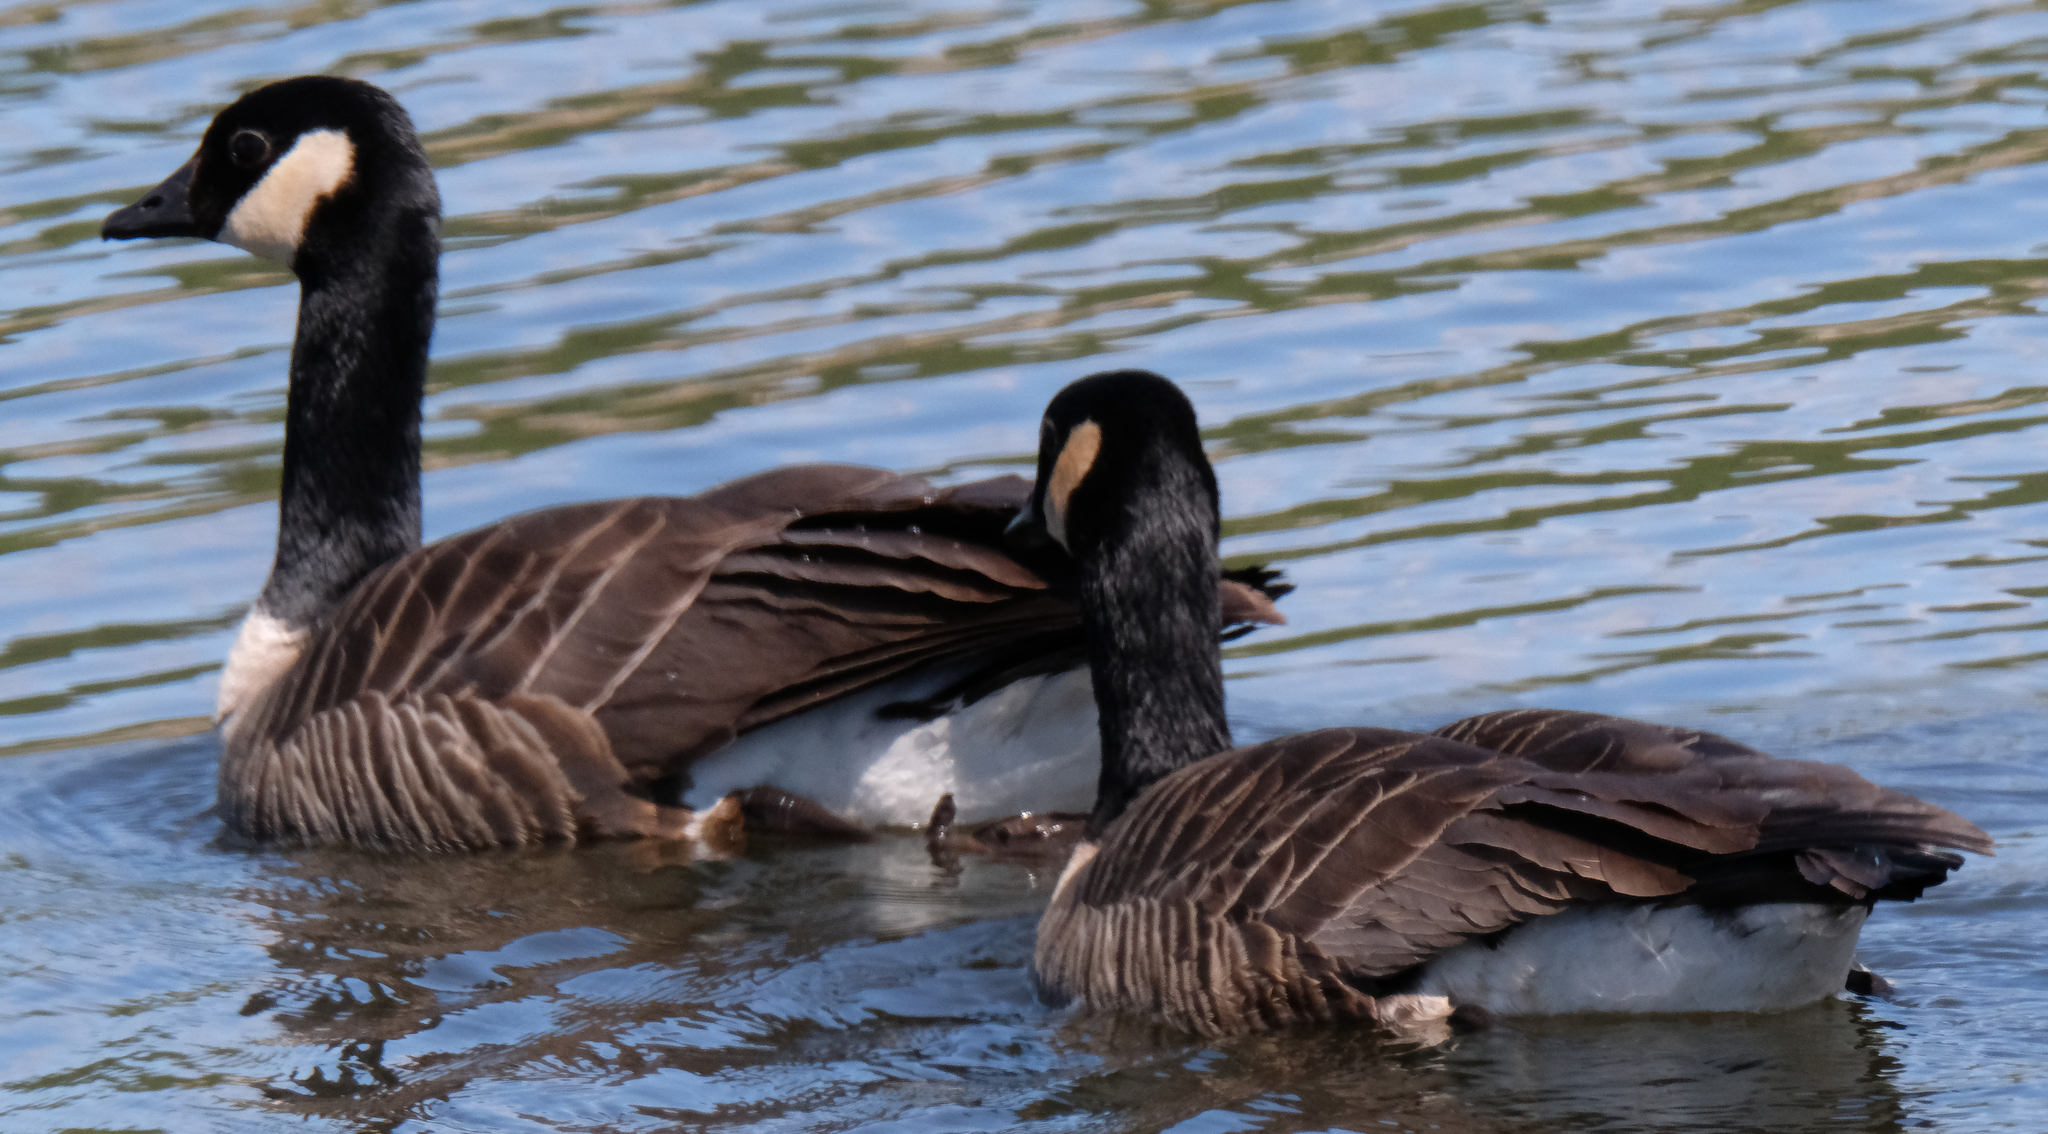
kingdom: Animalia
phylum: Chordata
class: Aves
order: Anseriformes
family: Anatidae
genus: Branta
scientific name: Branta canadensis
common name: Canada goose
